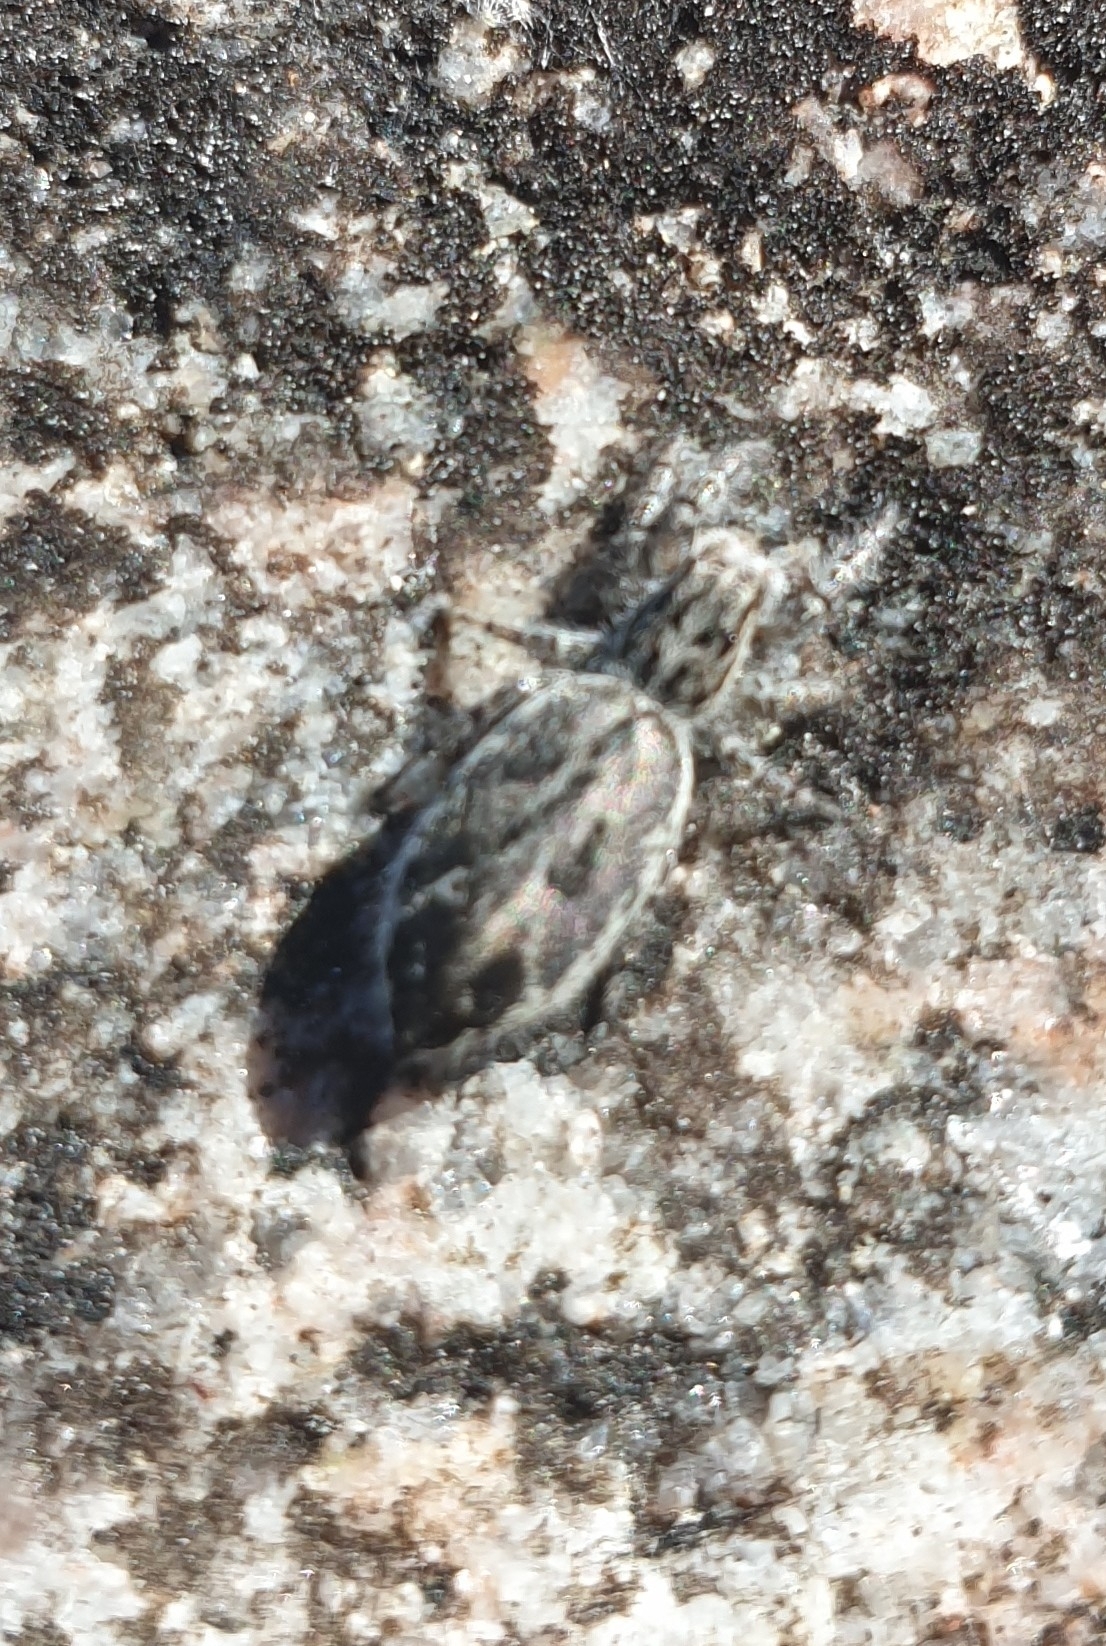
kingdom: Animalia
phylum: Arthropoda
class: Arachnida
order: Araneae
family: Salticidae
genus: Pseudicius
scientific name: Pseudicius encarpatus
